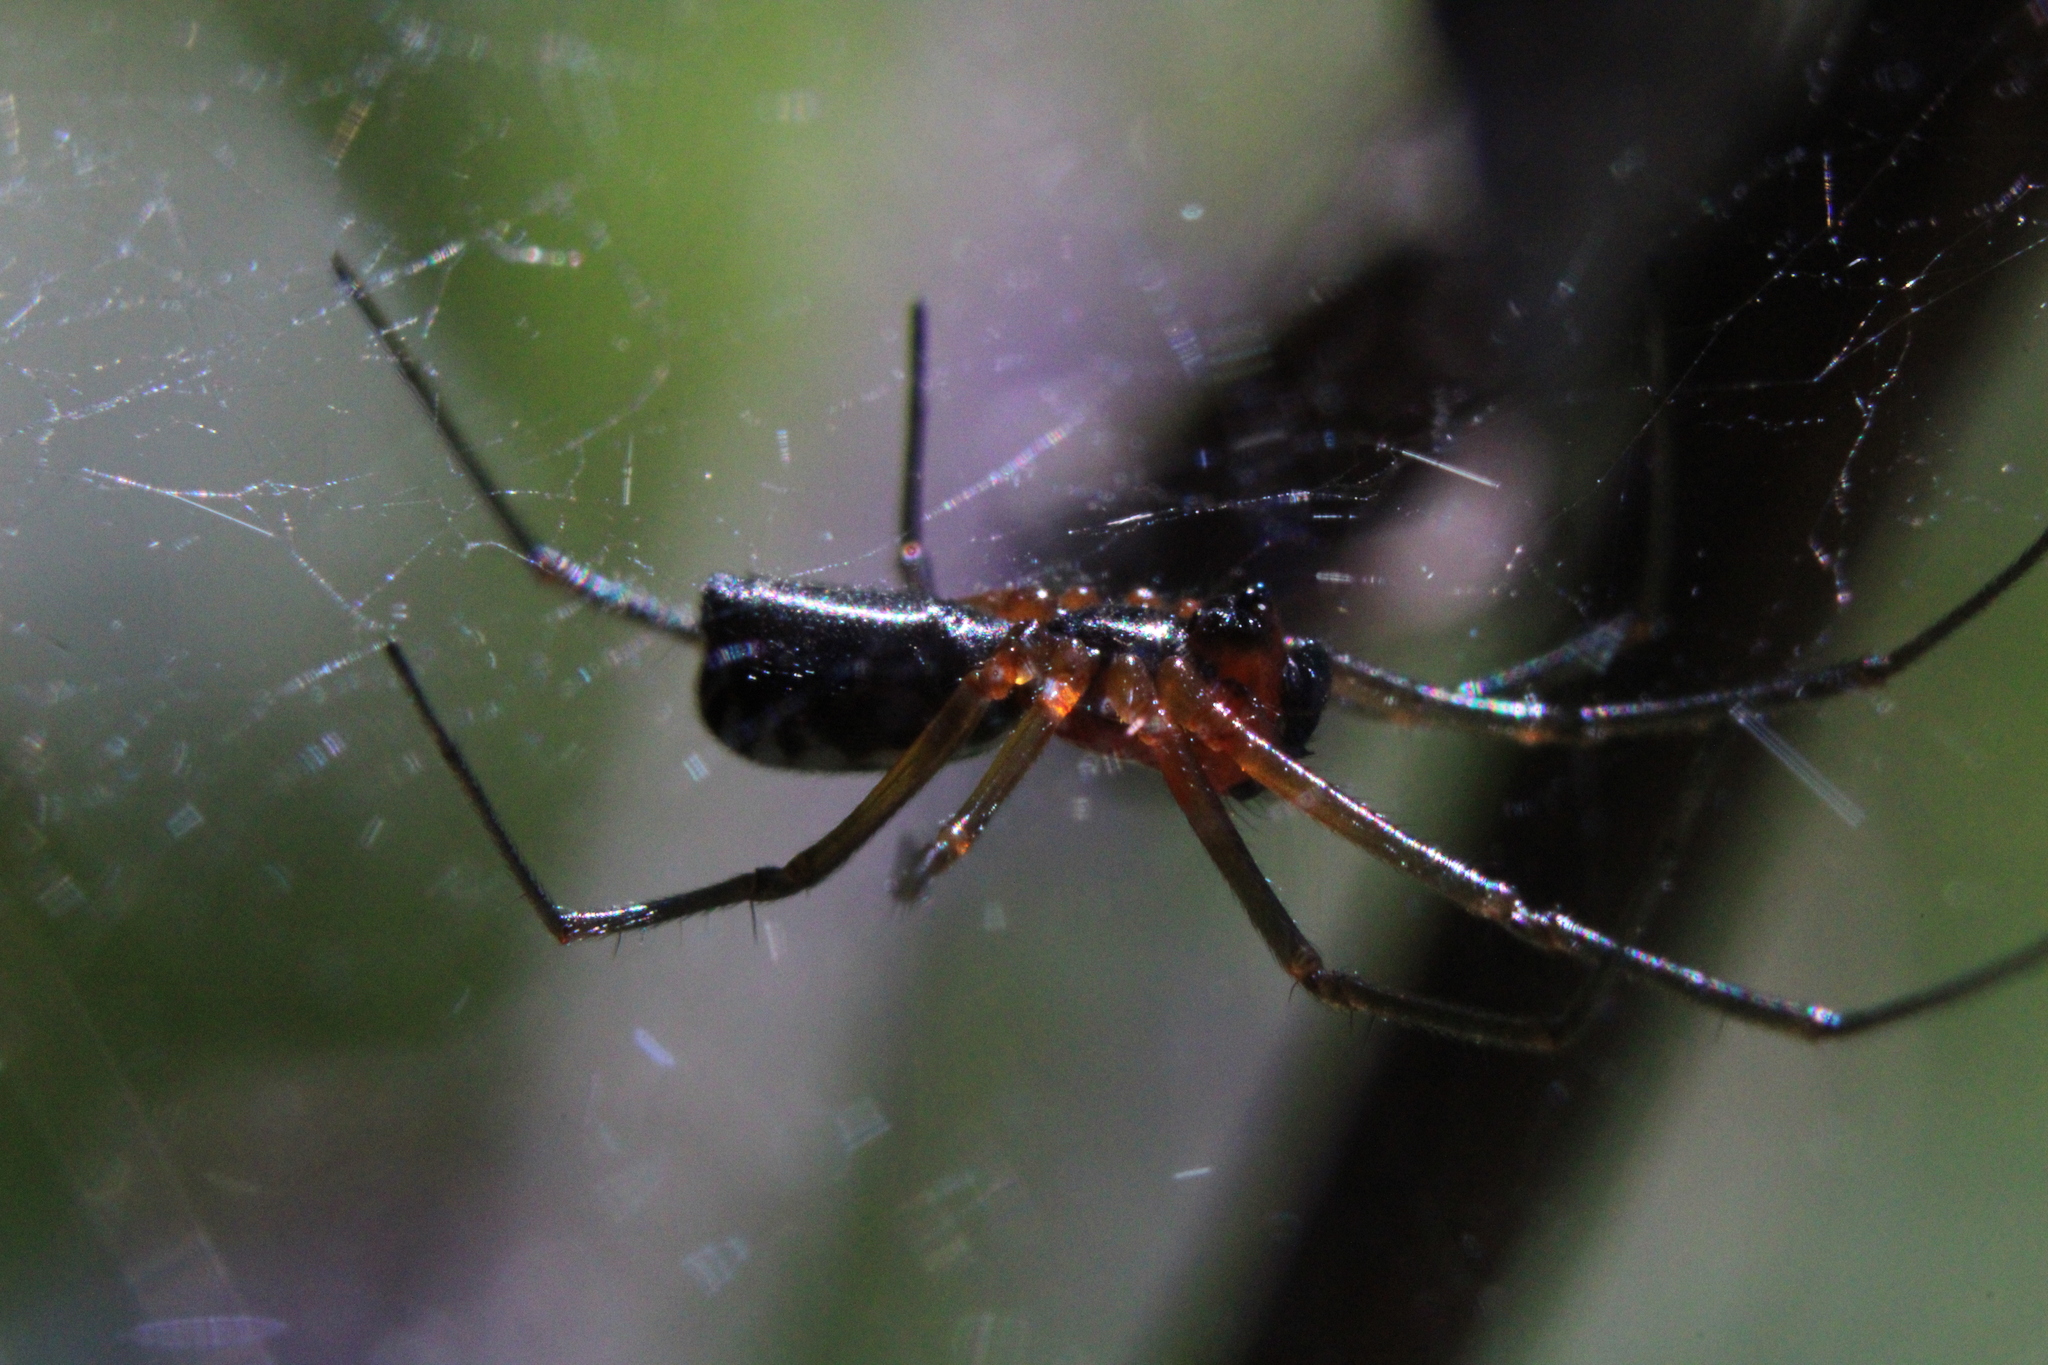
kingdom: Animalia
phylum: Arthropoda
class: Arachnida
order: Araneae
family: Linyphiidae
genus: Frontinella
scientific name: Frontinella pyramitela
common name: Bowl-and-doily spider
